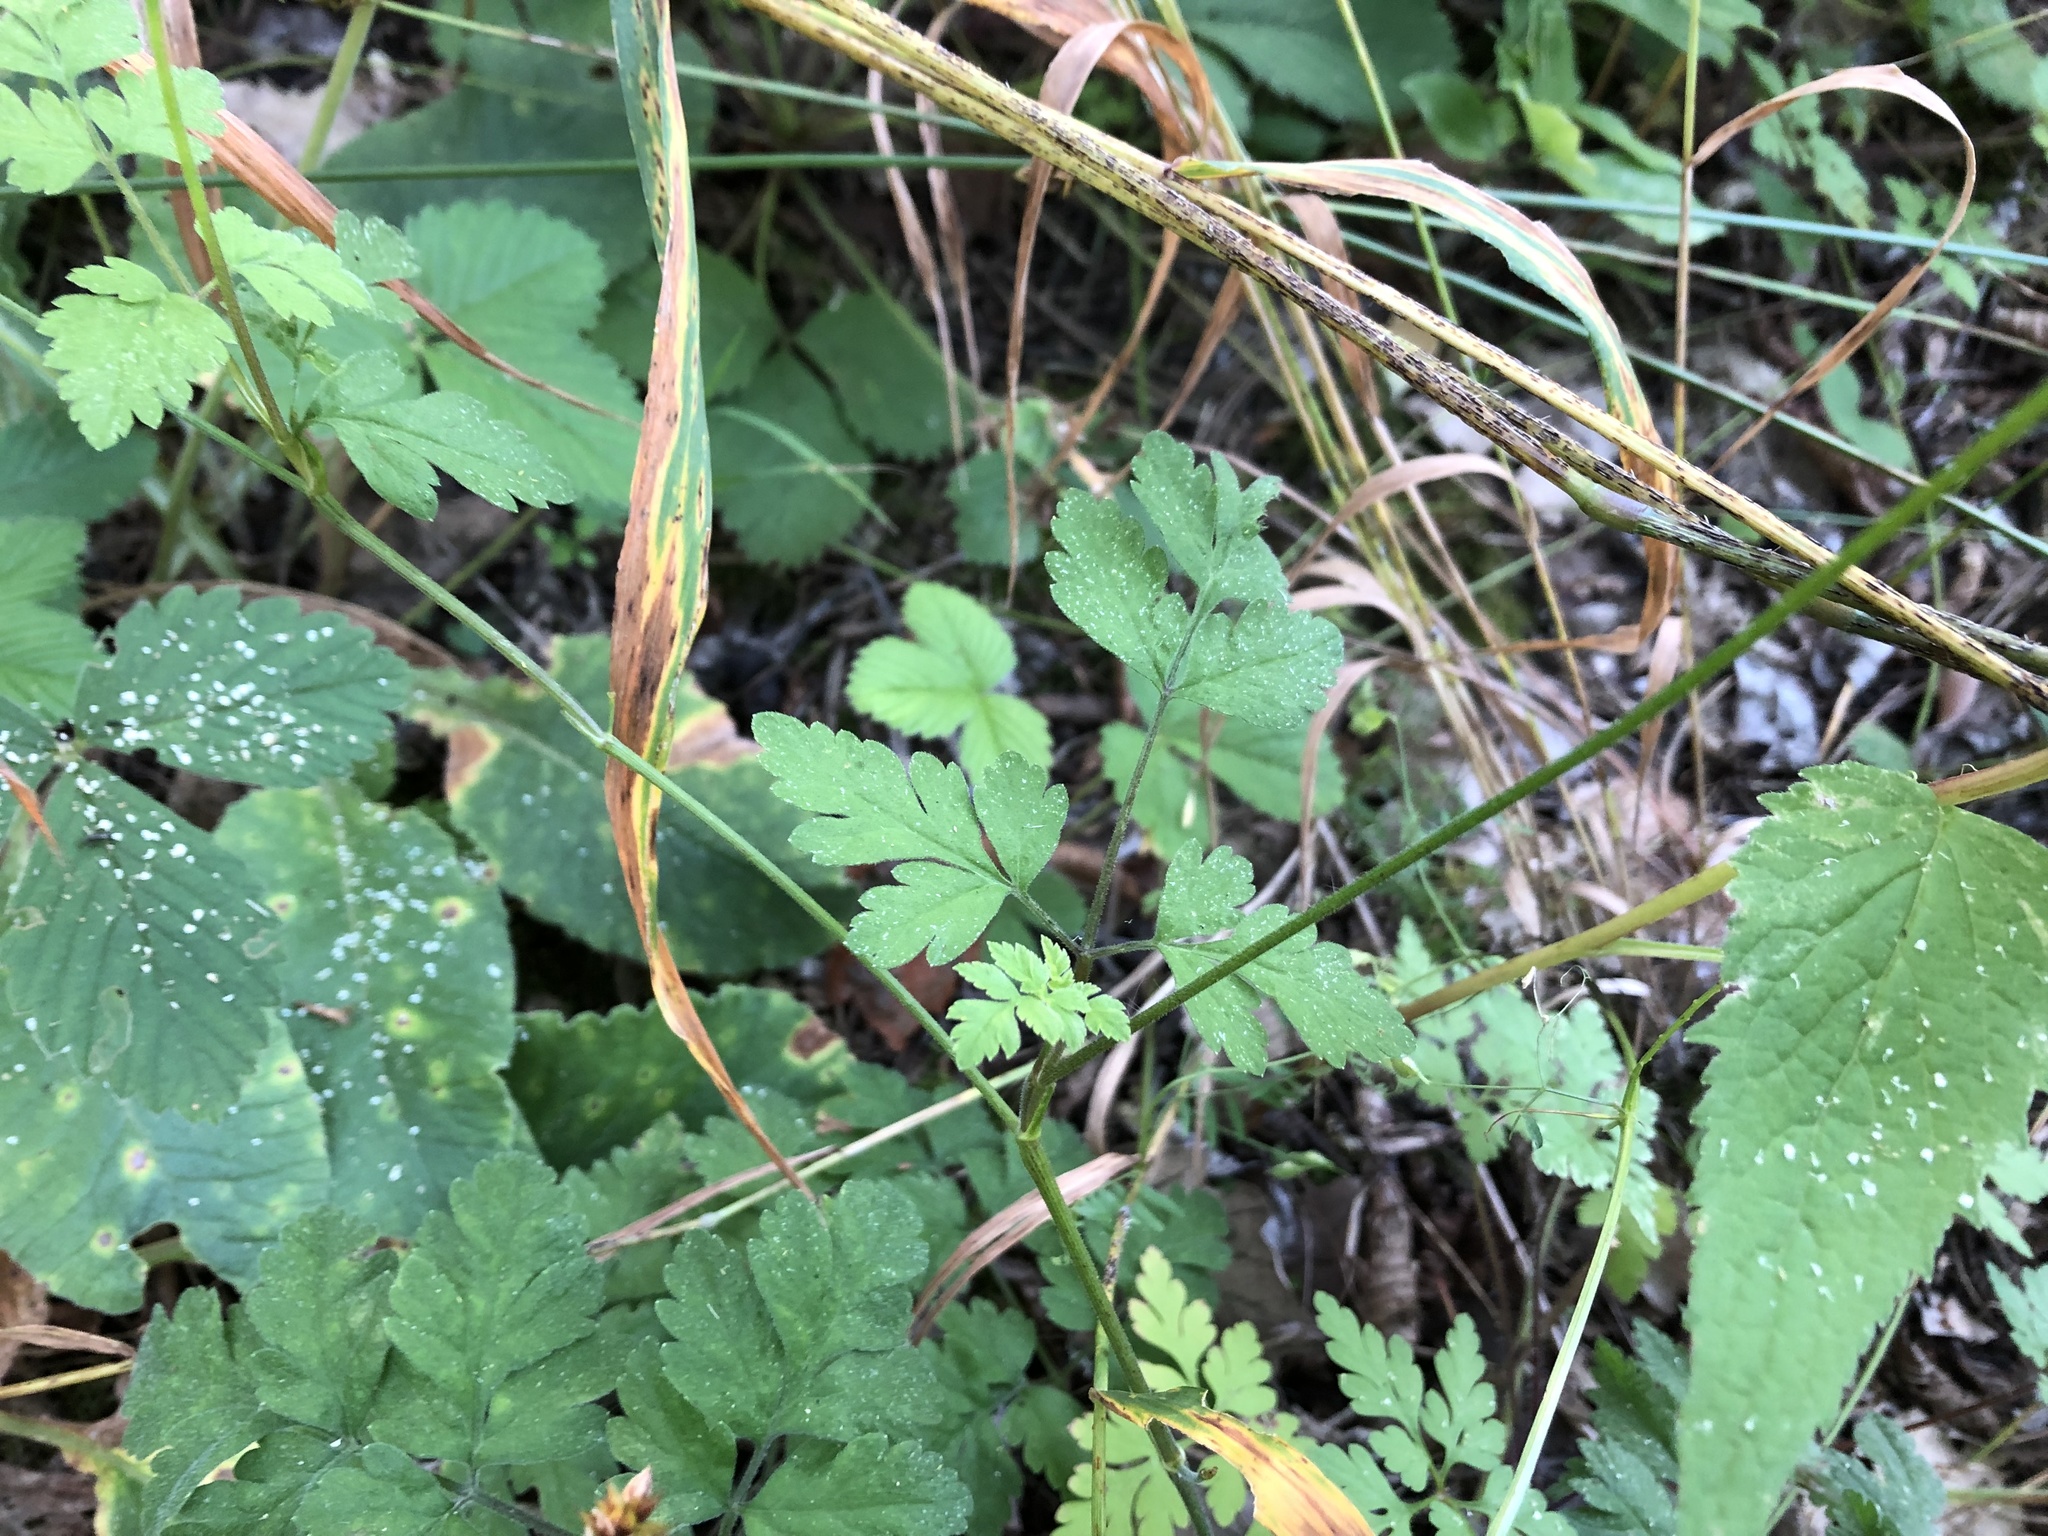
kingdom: Plantae
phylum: Tracheophyta
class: Magnoliopsida
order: Apiales
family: Apiaceae
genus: Chaerophyllum
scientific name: Chaerophyllum temulum
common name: Rough chervil
